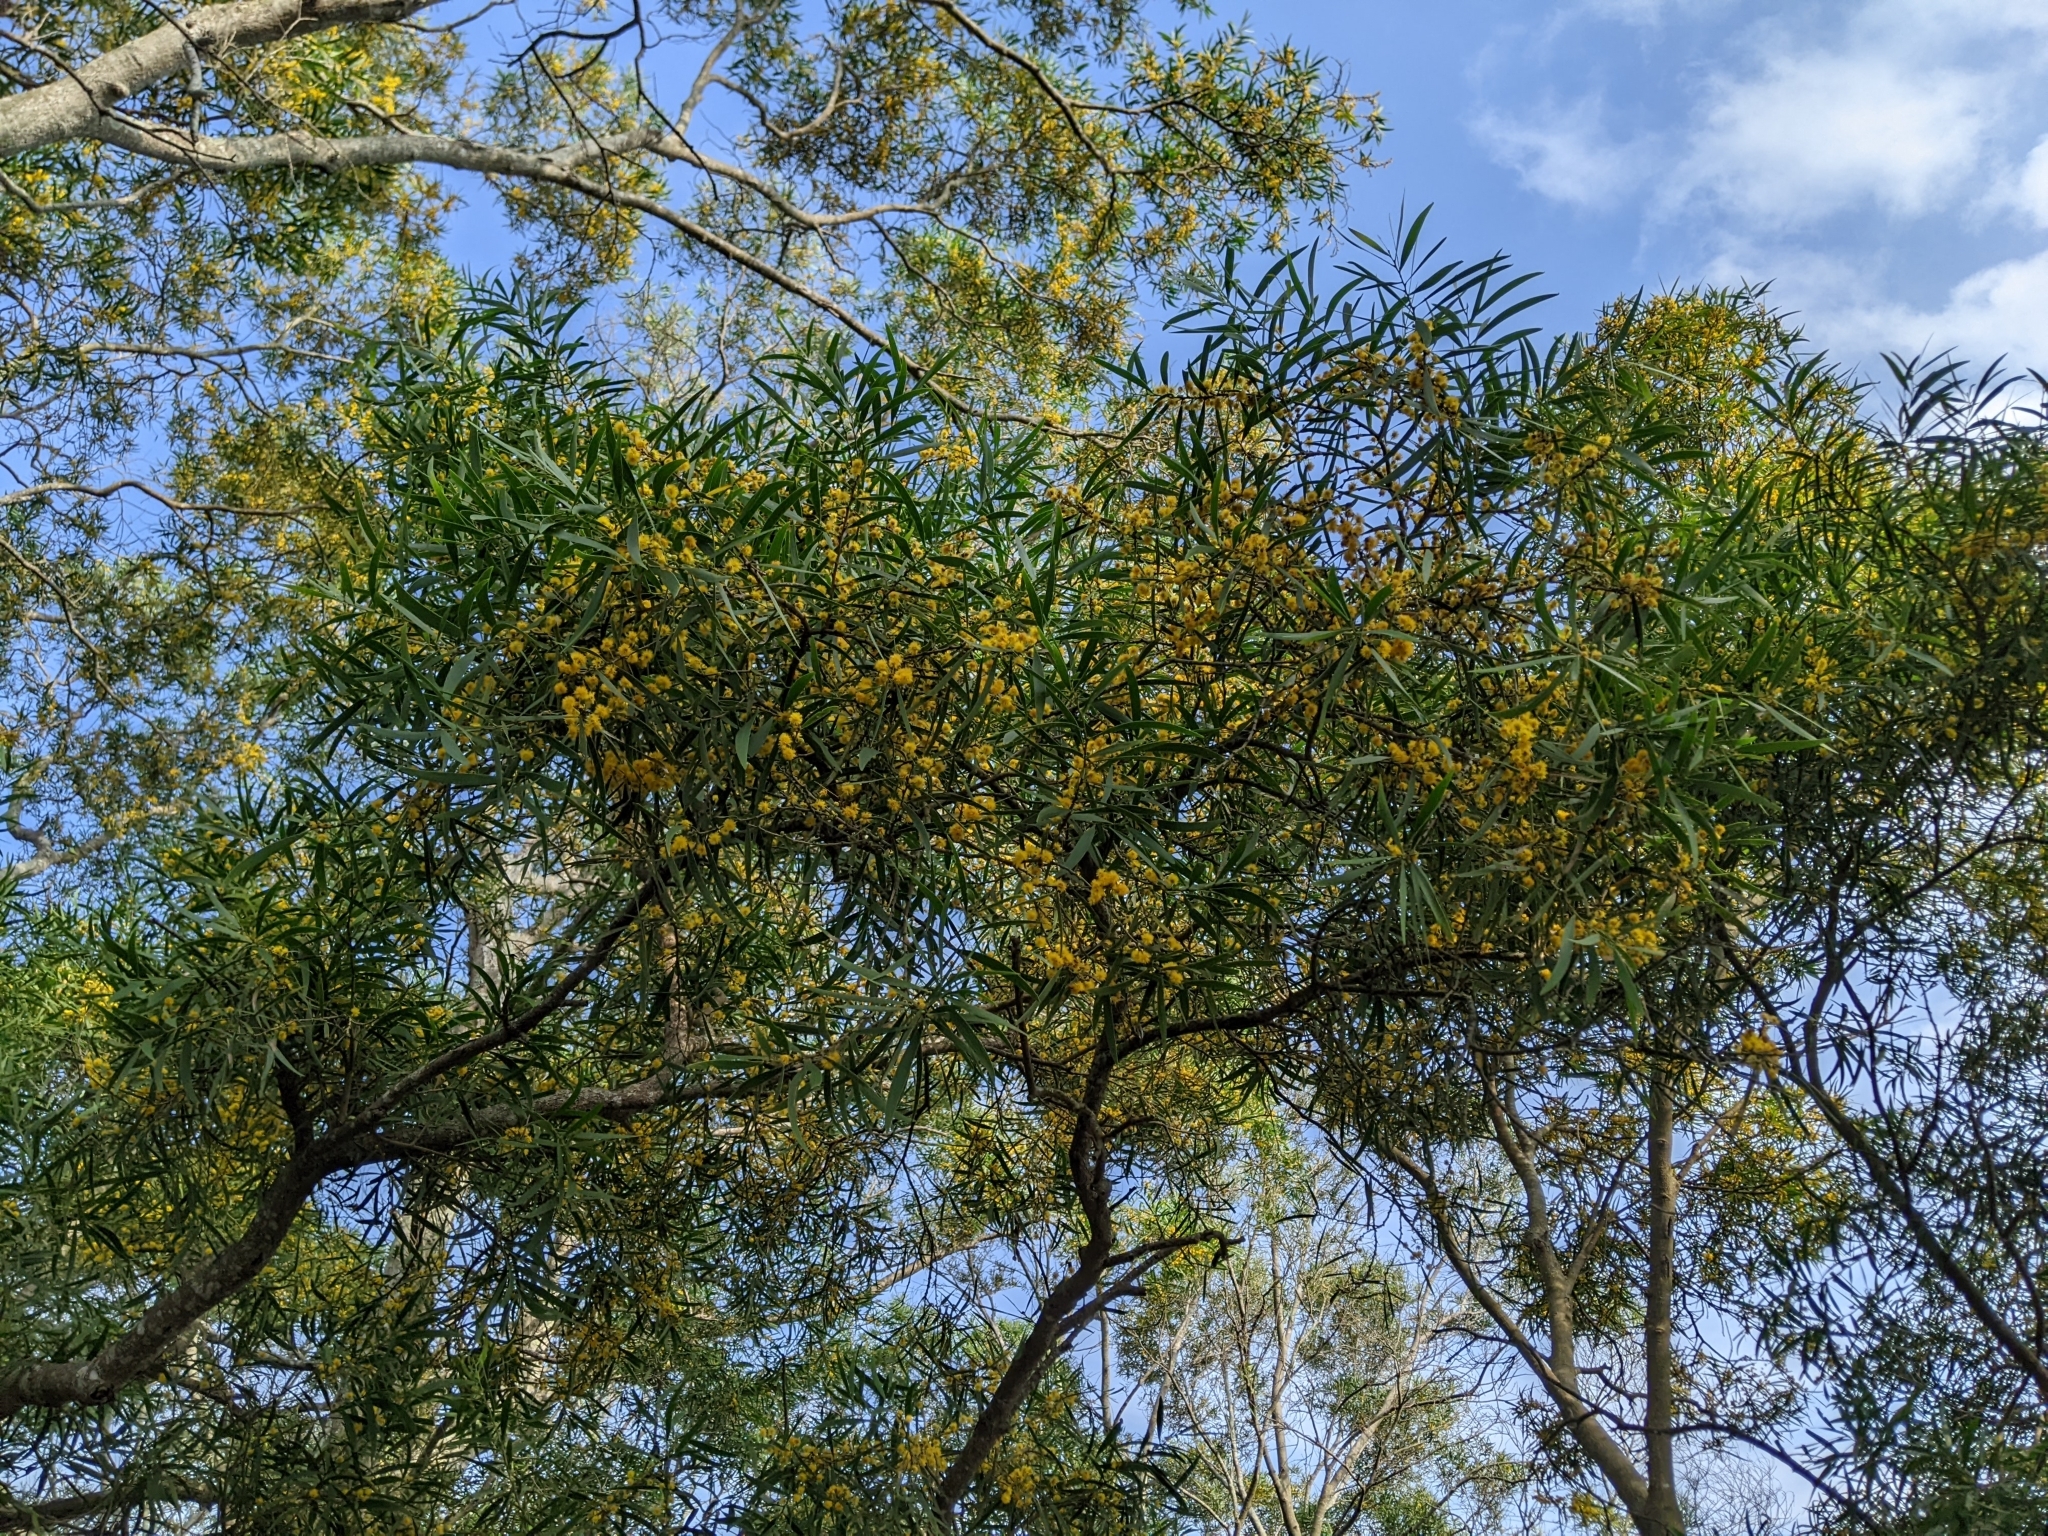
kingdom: Plantae
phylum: Tracheophyta
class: Magnoliopsida
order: Fabales
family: Fabaceae
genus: Acacia
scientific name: Acacia confusa
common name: Formosan koa
